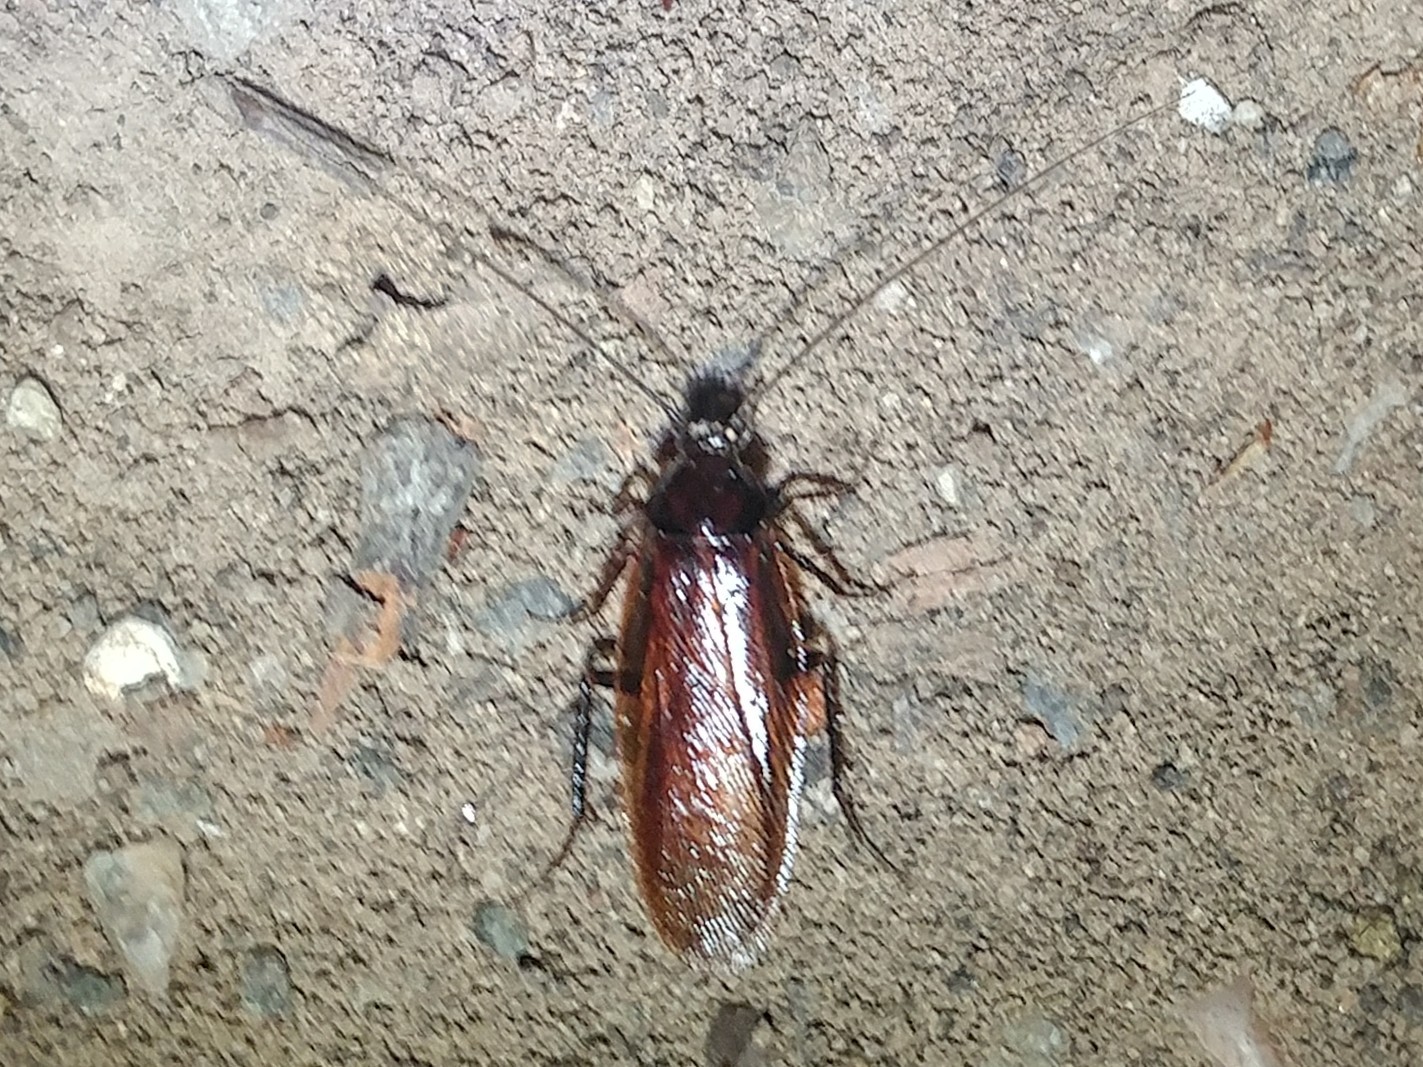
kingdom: Animalia
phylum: Arthropoda
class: Insecta
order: Blattodea
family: Ectobiidae
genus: Parcoblatta
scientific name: Parcoblatta americana
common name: Western wood cockroach
